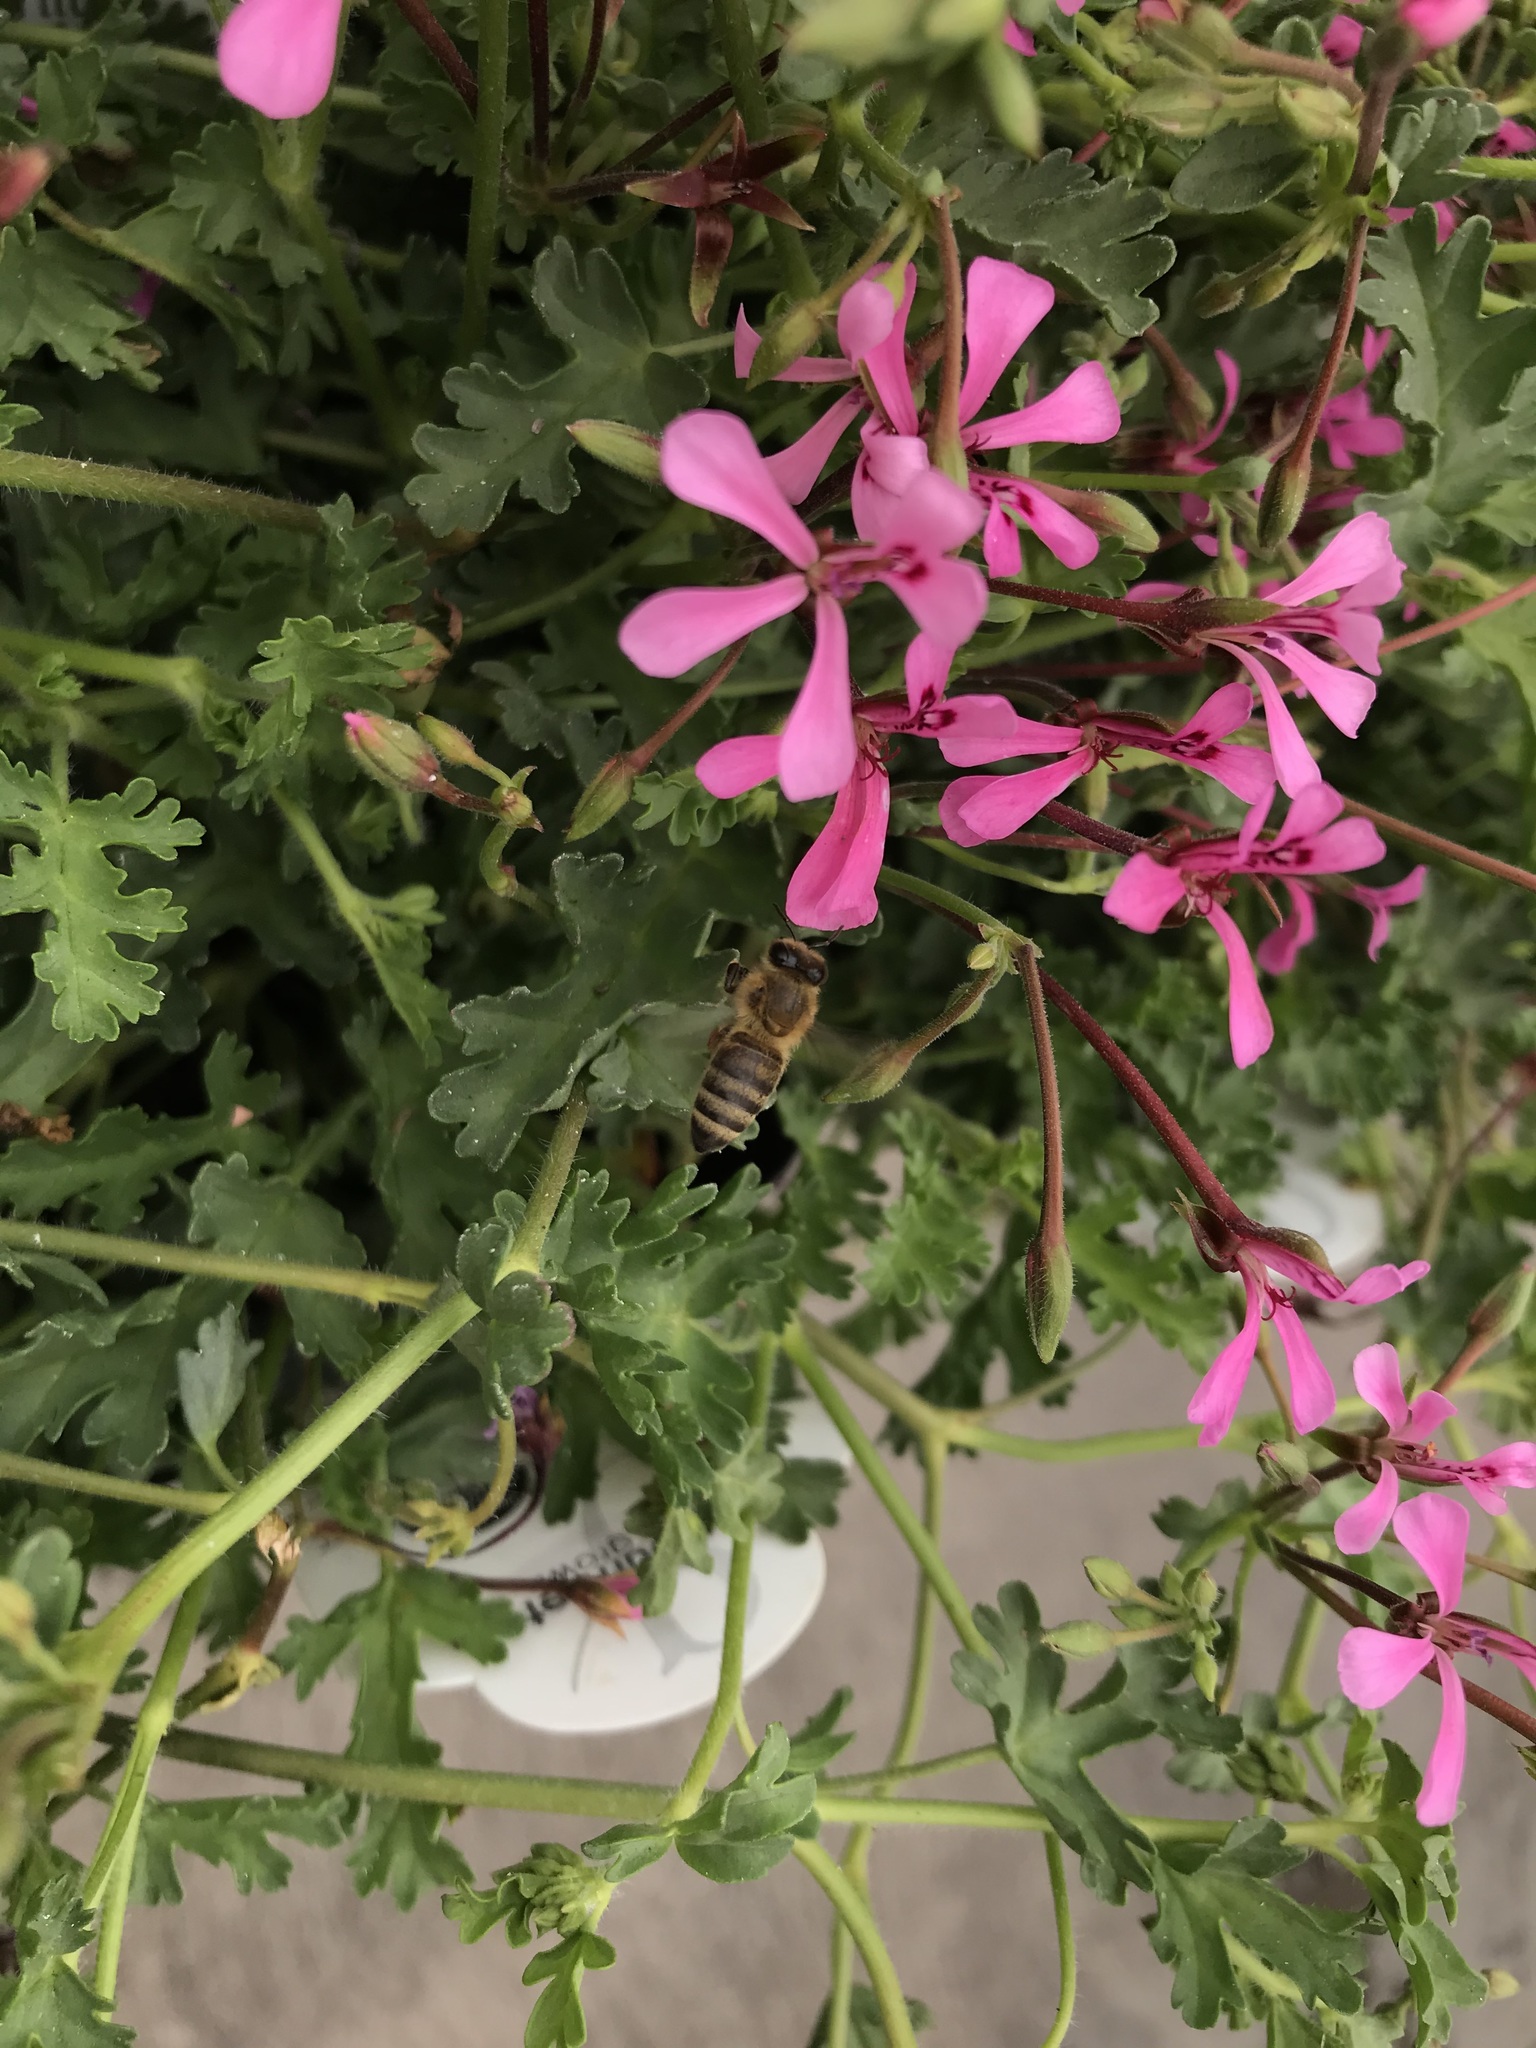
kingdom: Animalia
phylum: Arthropoda
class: Insecta
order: Hymenoptera
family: Apidae
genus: Apis
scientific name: Apis mellifera
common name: Honey bee
